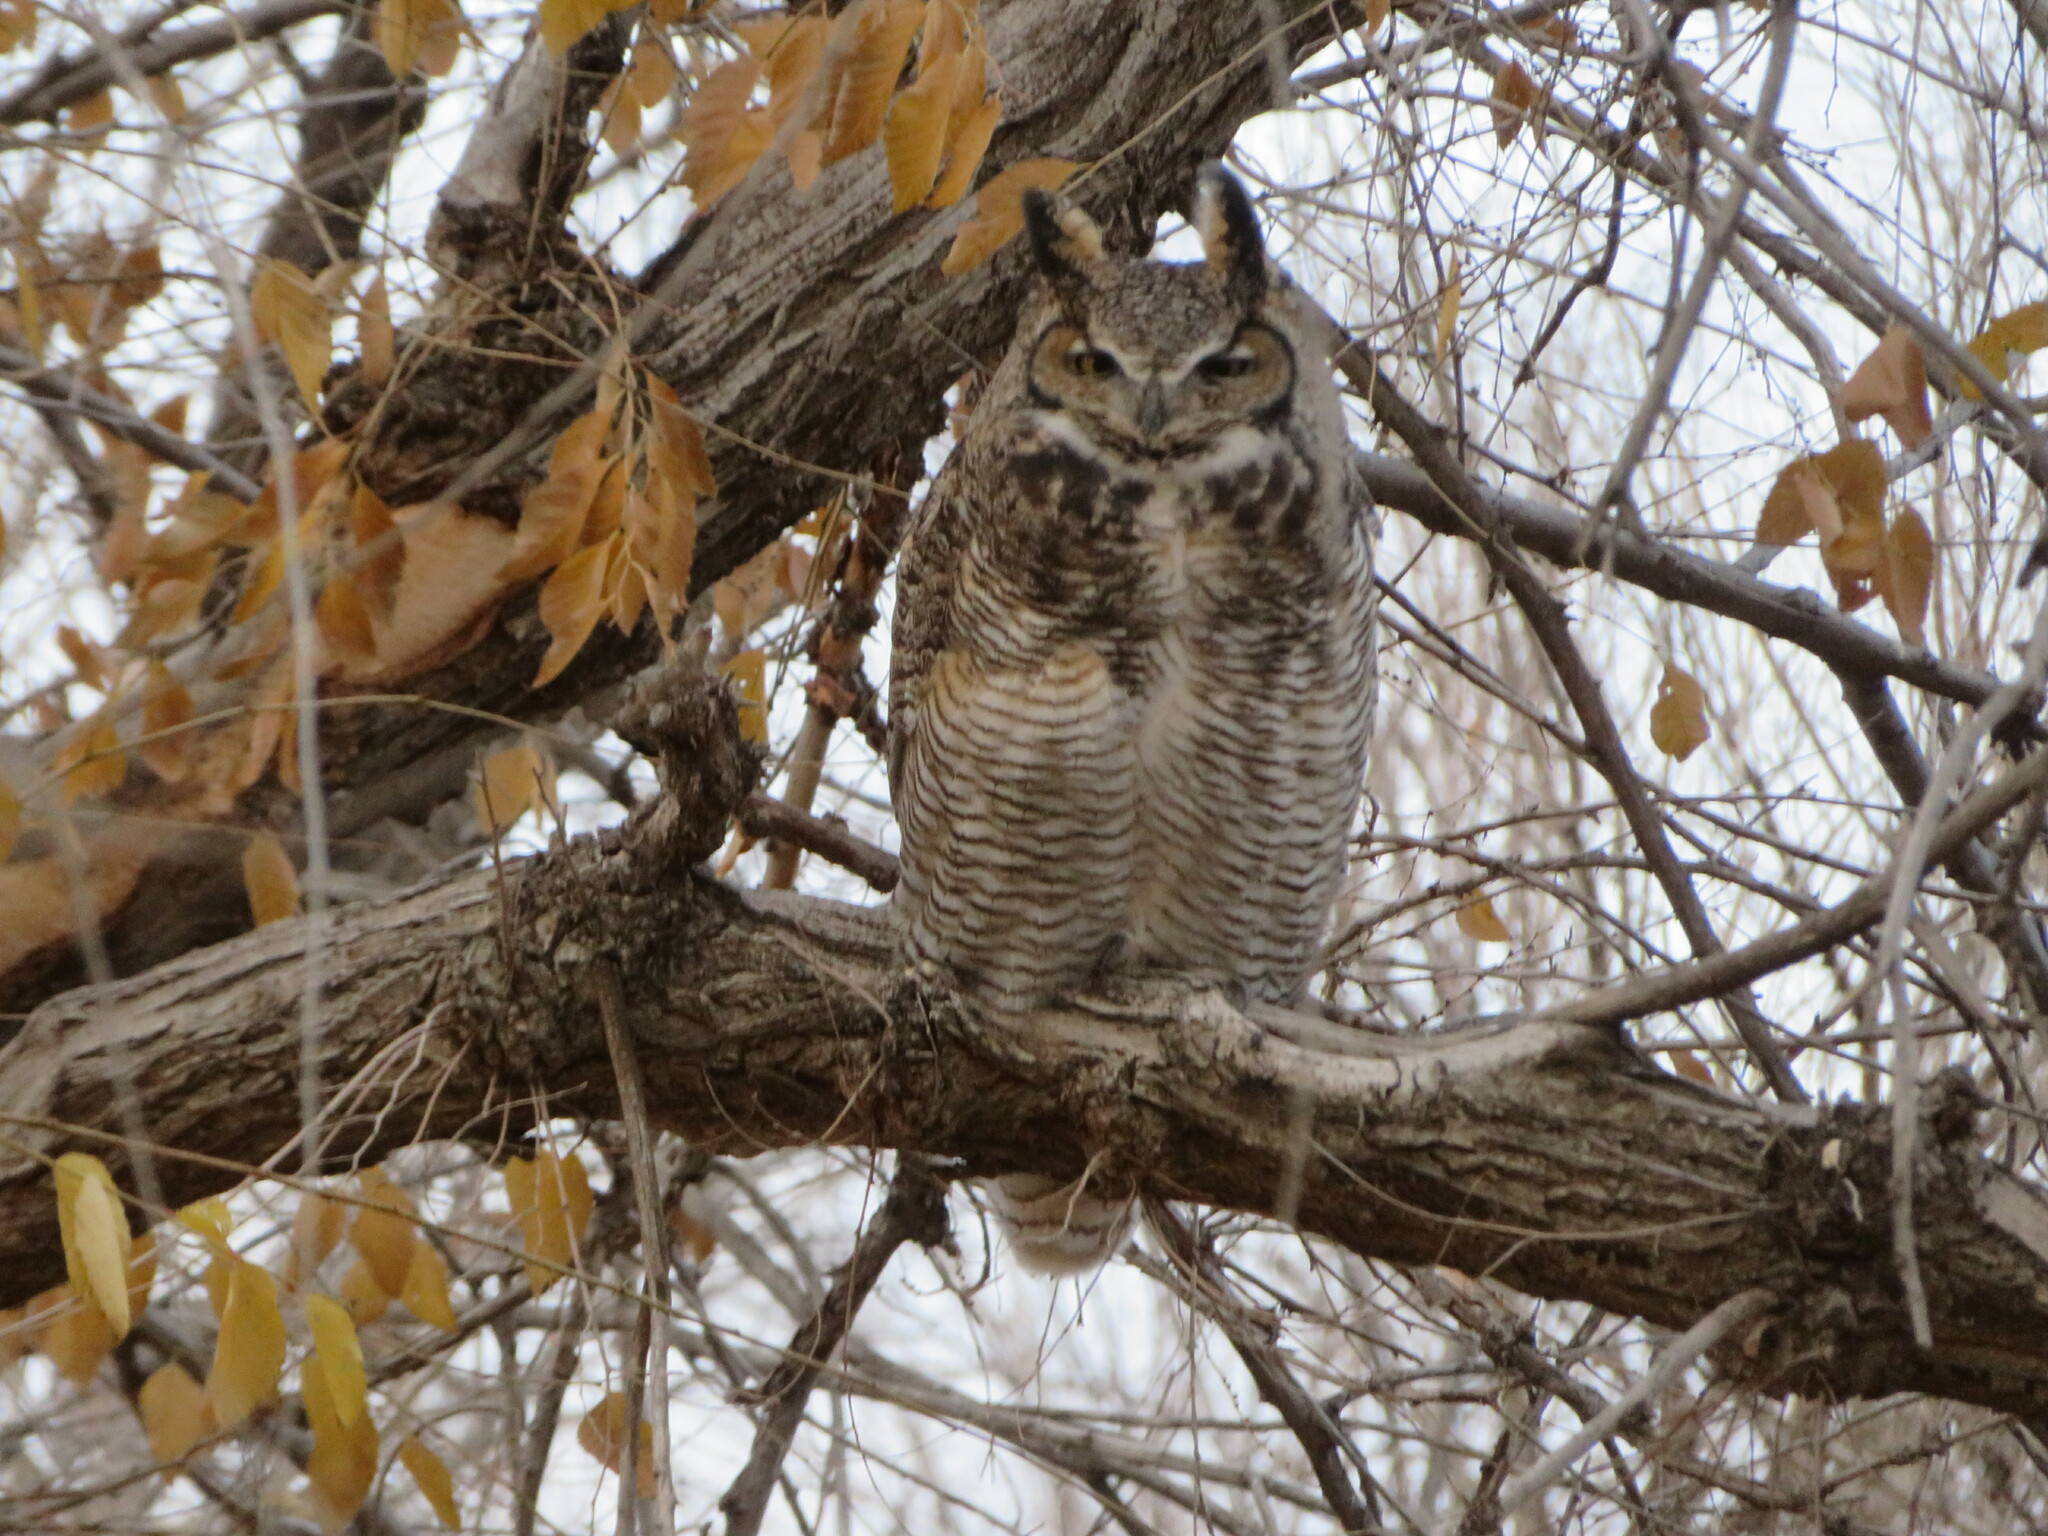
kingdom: Animalia
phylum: Chordata
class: Aves
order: Strigiformes
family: Strigidae
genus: Bubo
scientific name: Bubo virginianus
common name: Great horned owl
